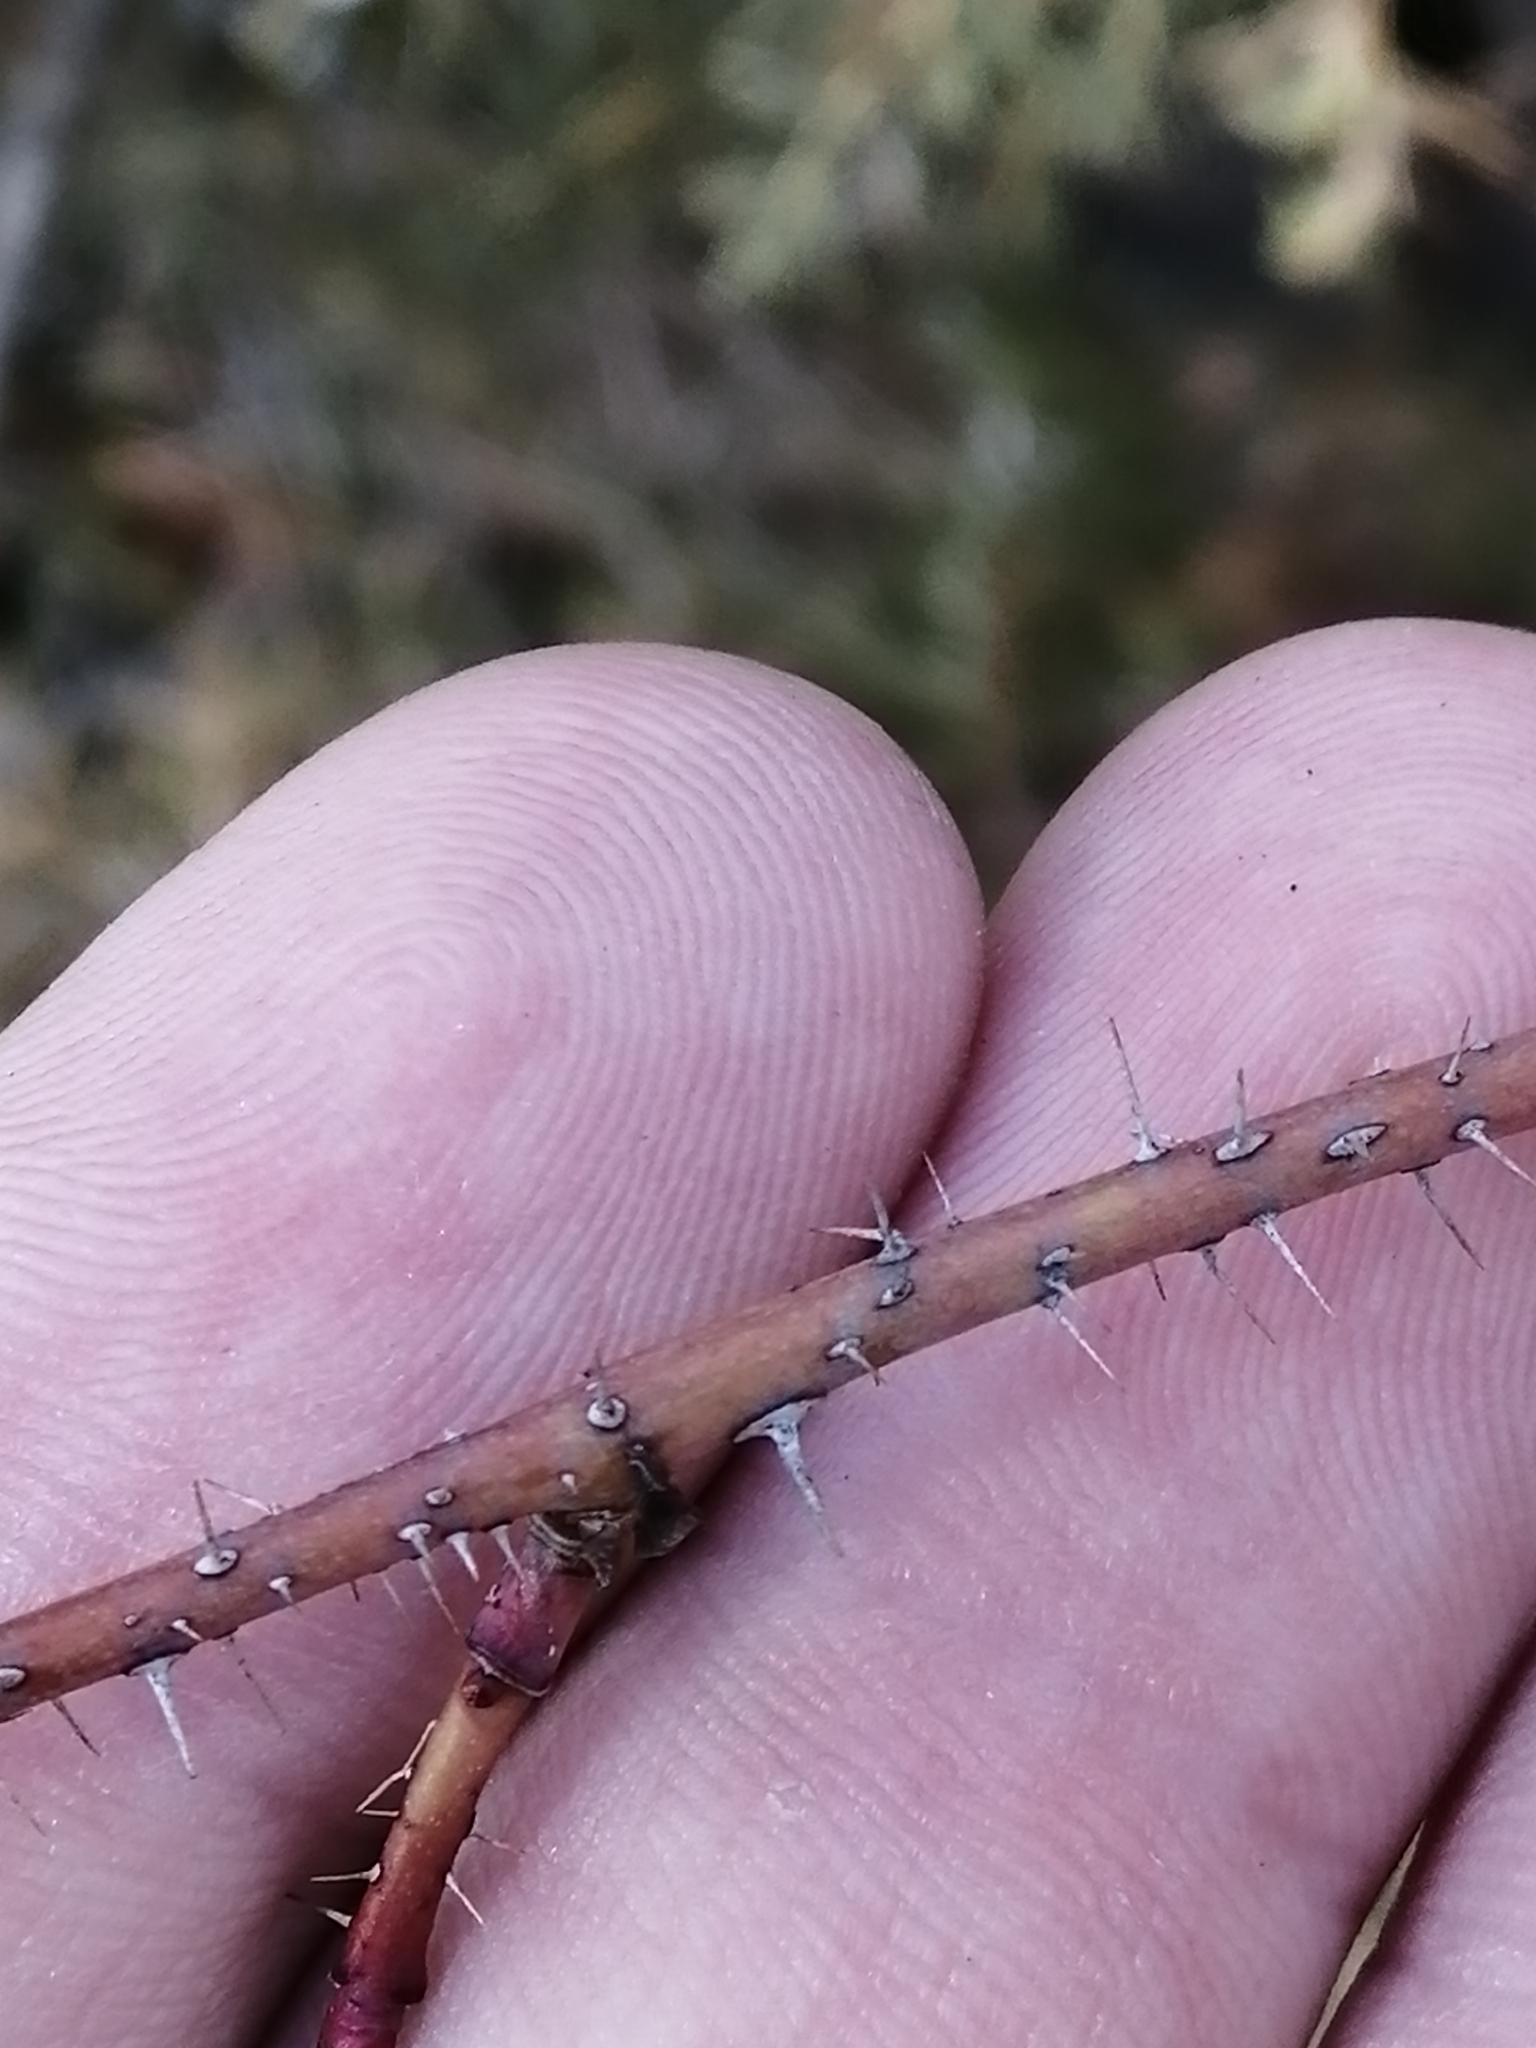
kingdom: Plantae
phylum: Tracheophyta
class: Magnoliopsida
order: Rosales
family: Rosaceae
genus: Rosa
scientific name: Rosa acicularis
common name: Prickly rose
